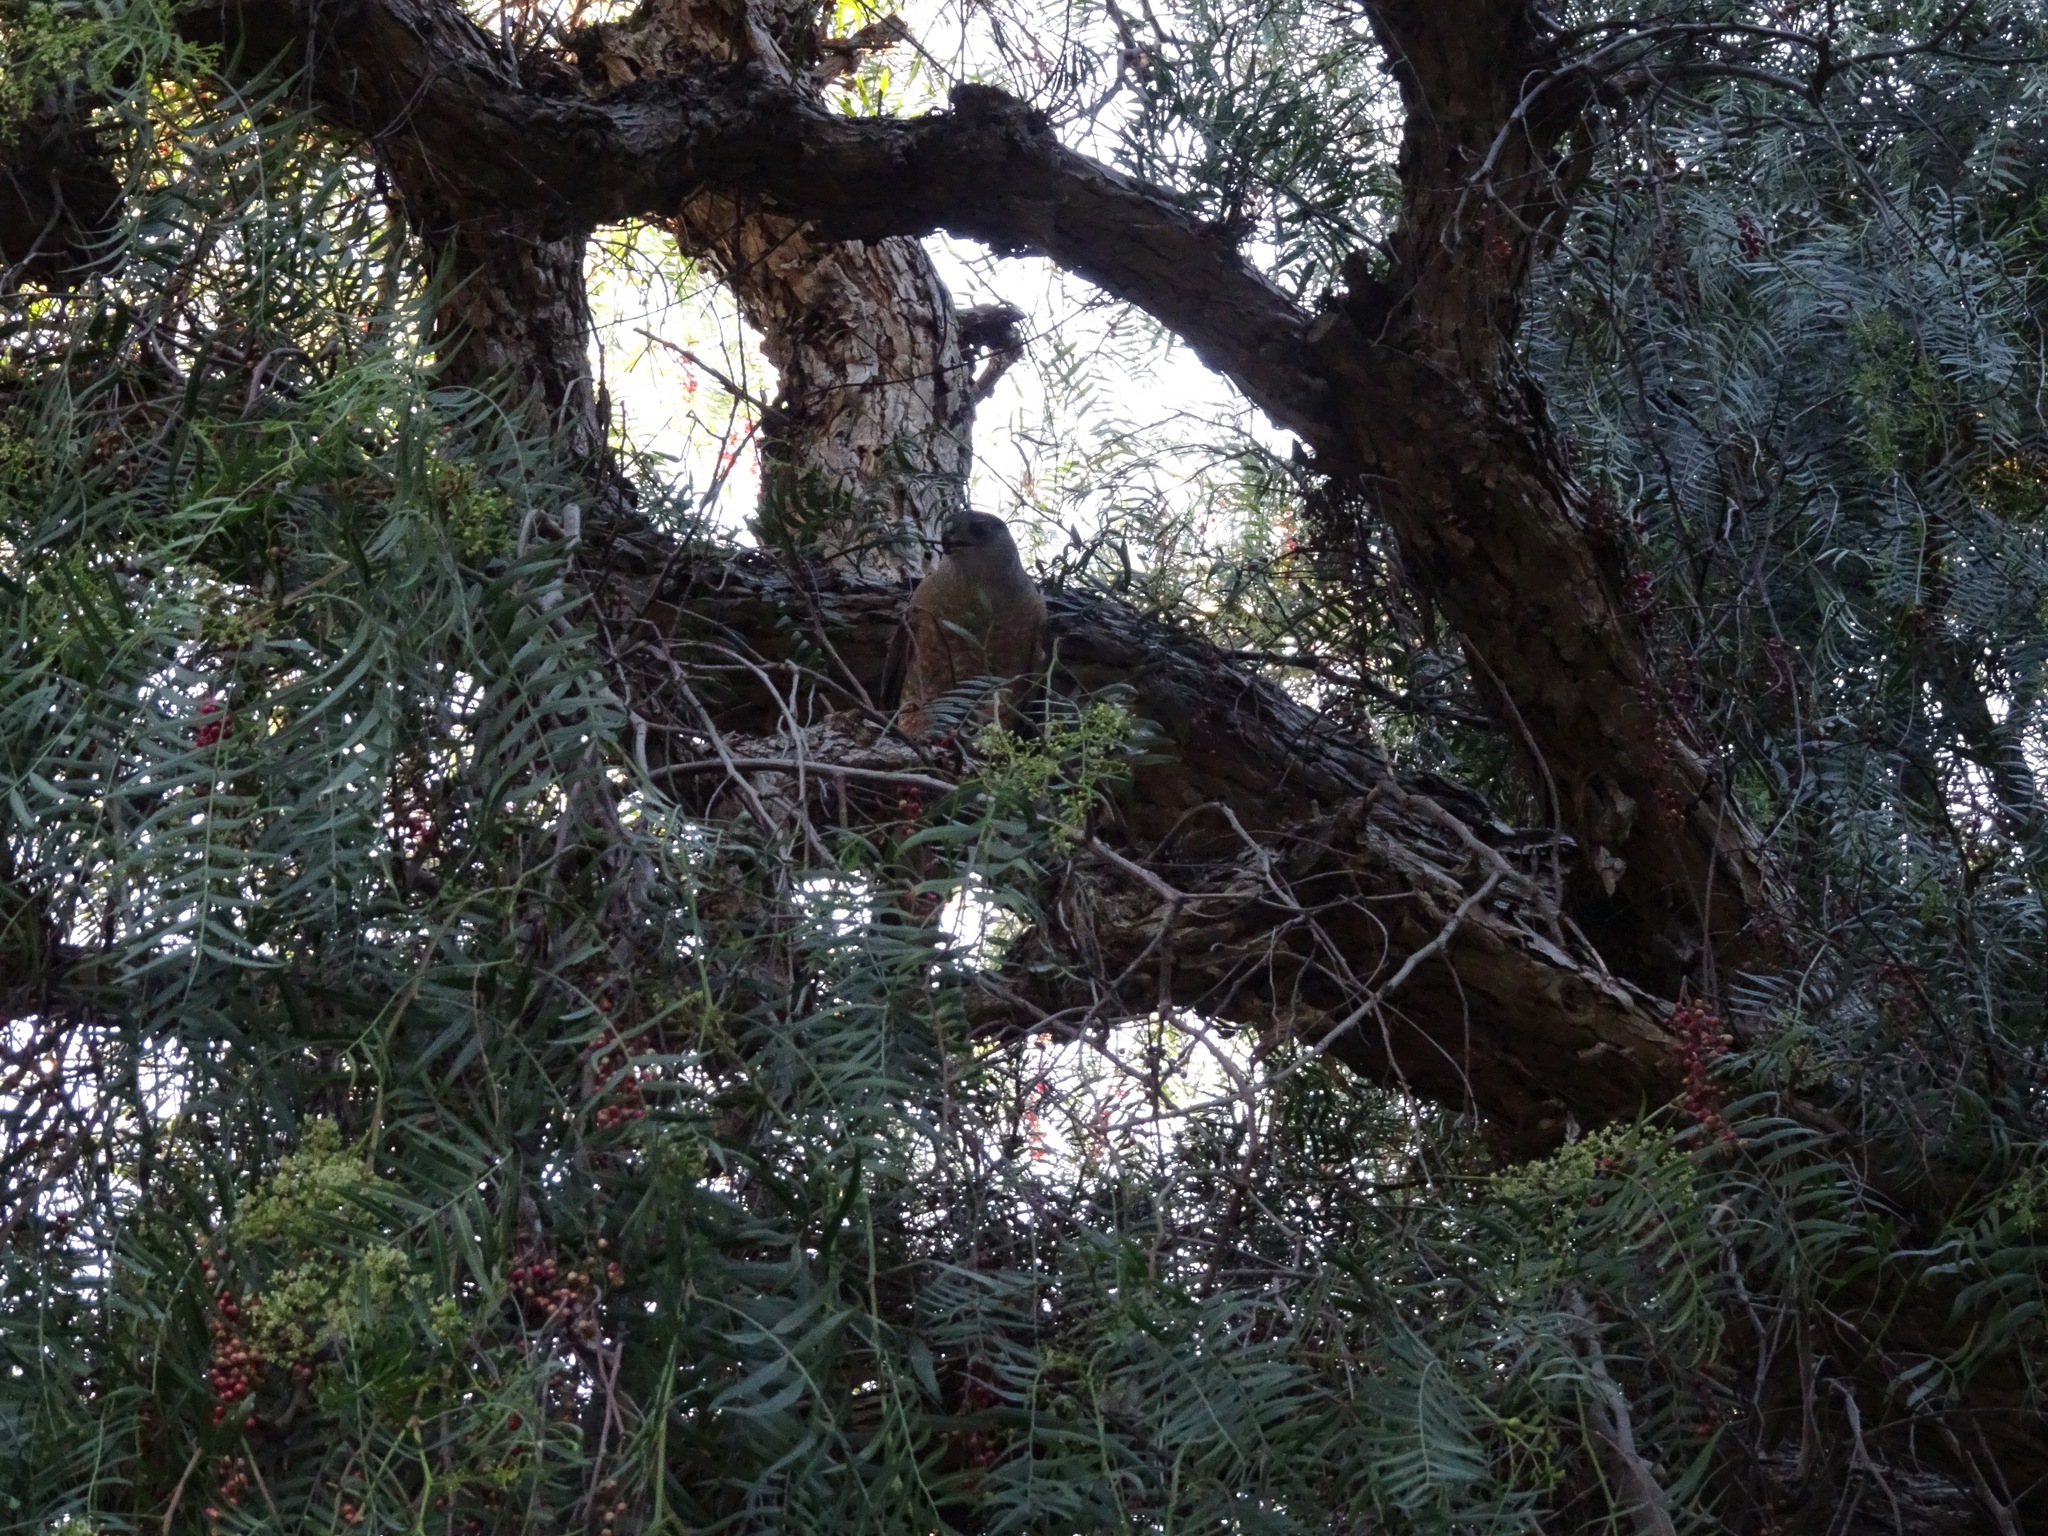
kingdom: Animalia
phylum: Chordata
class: Aves
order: Accipitriformes
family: Accipitridae
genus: Accipiter
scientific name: Accipiter cooperii
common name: Cooper's hawk
